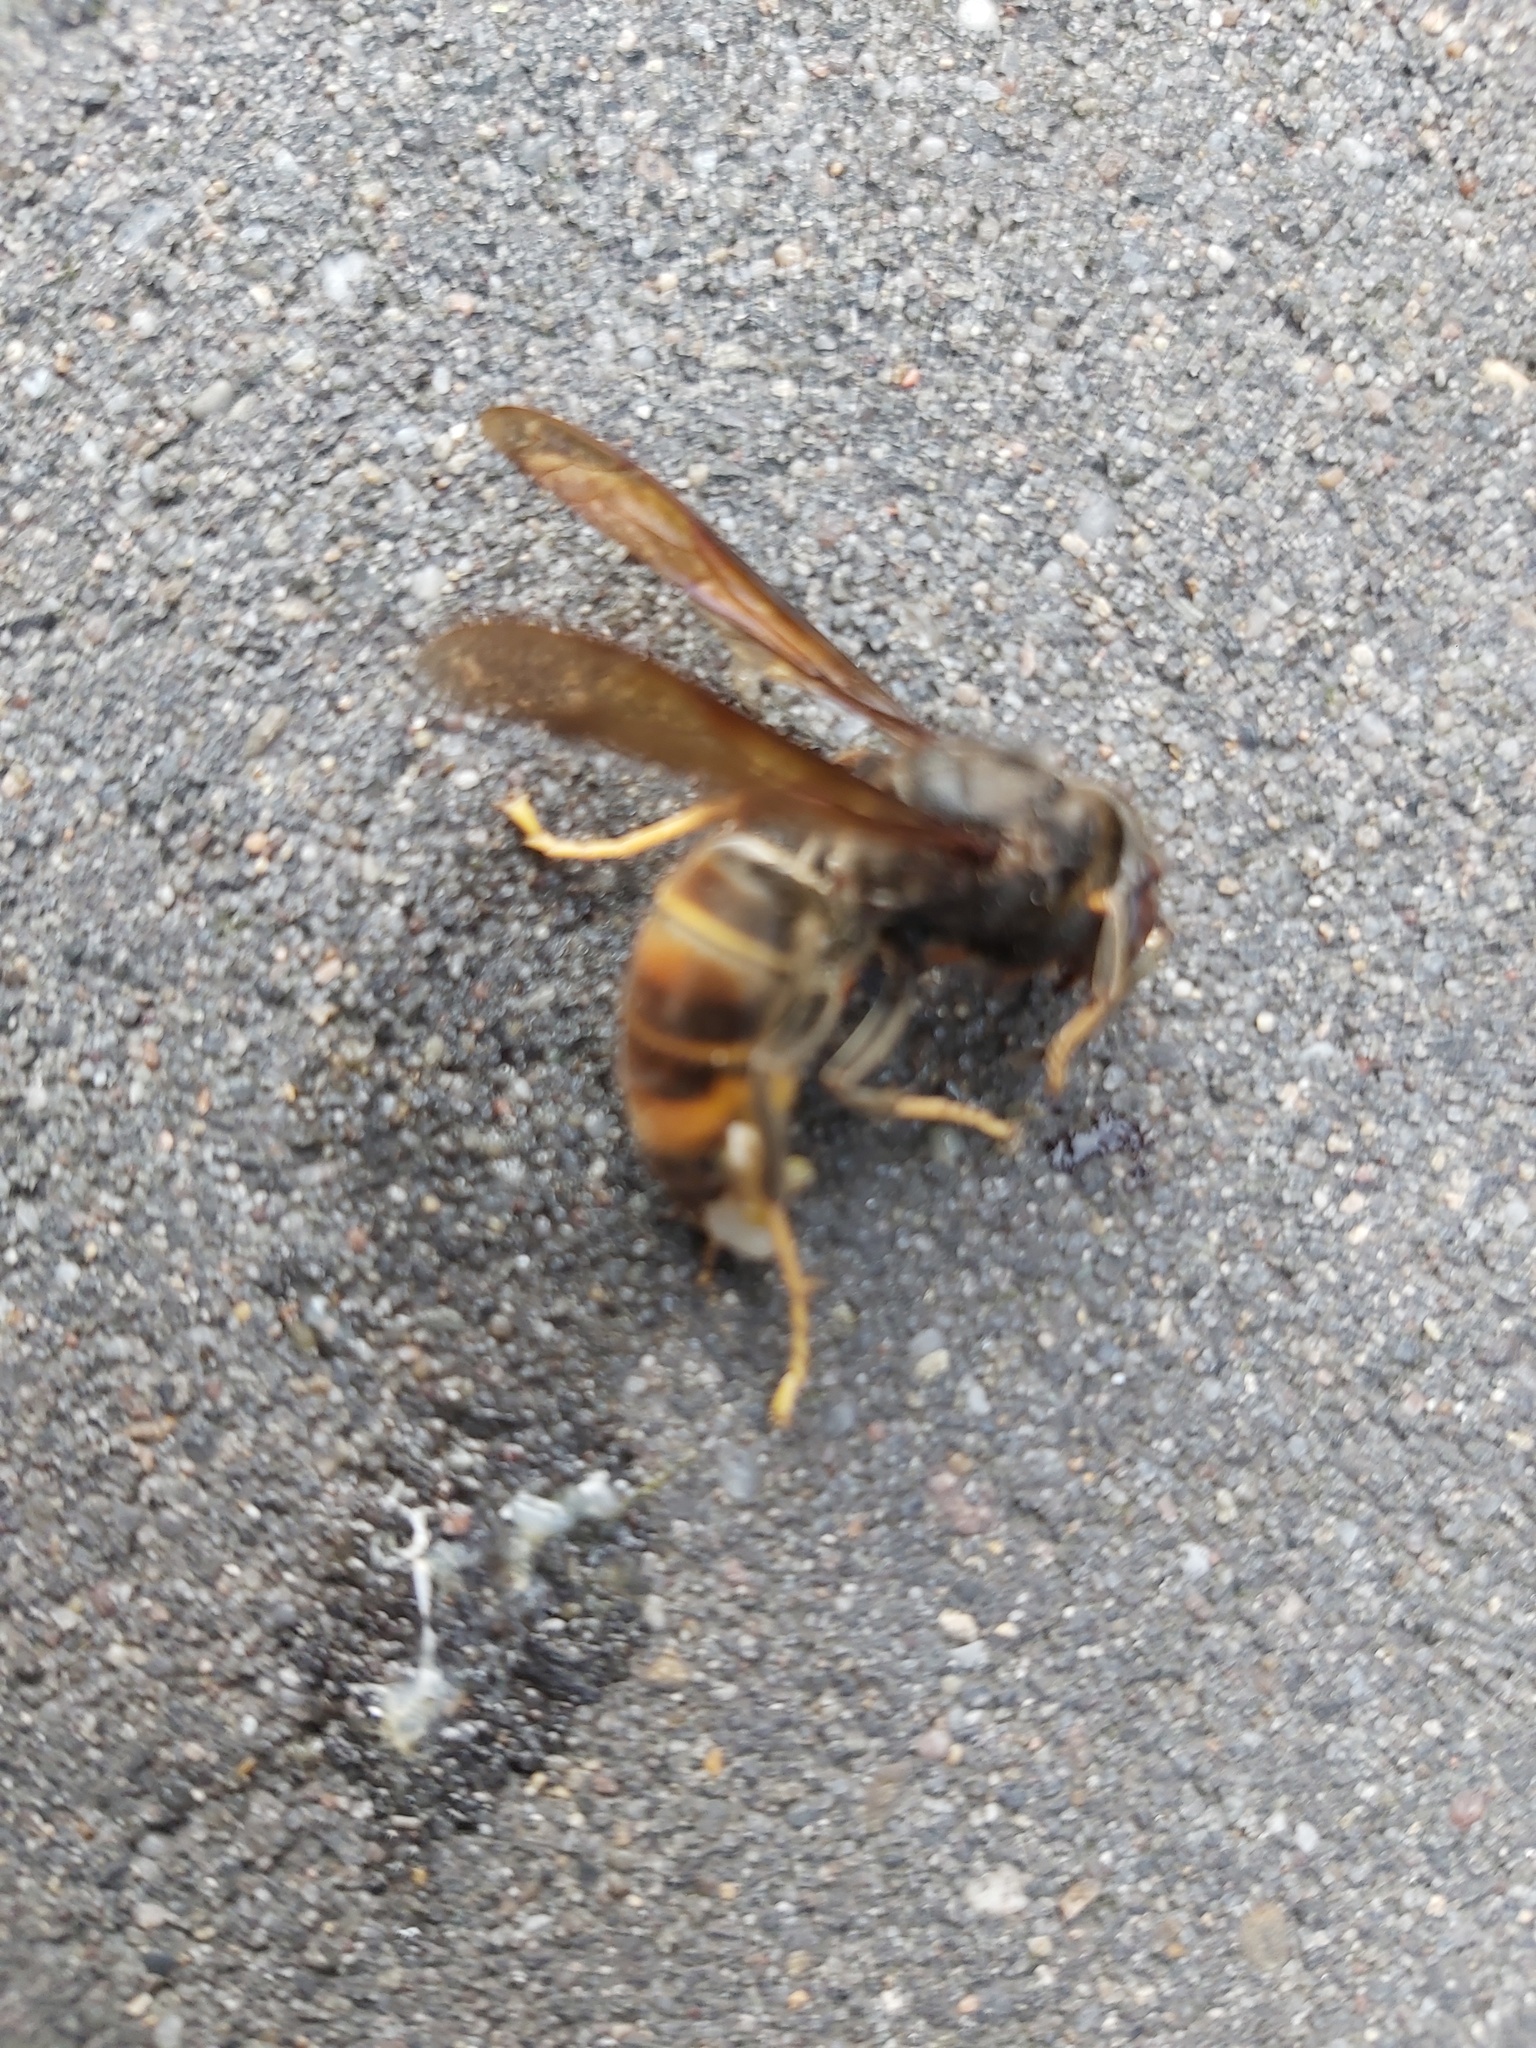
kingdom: Animalia
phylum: Arthropoda
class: Insecta
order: Hymenoptera
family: Vespidae
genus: Vespa
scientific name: Vespa velutina
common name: Asian hornet
